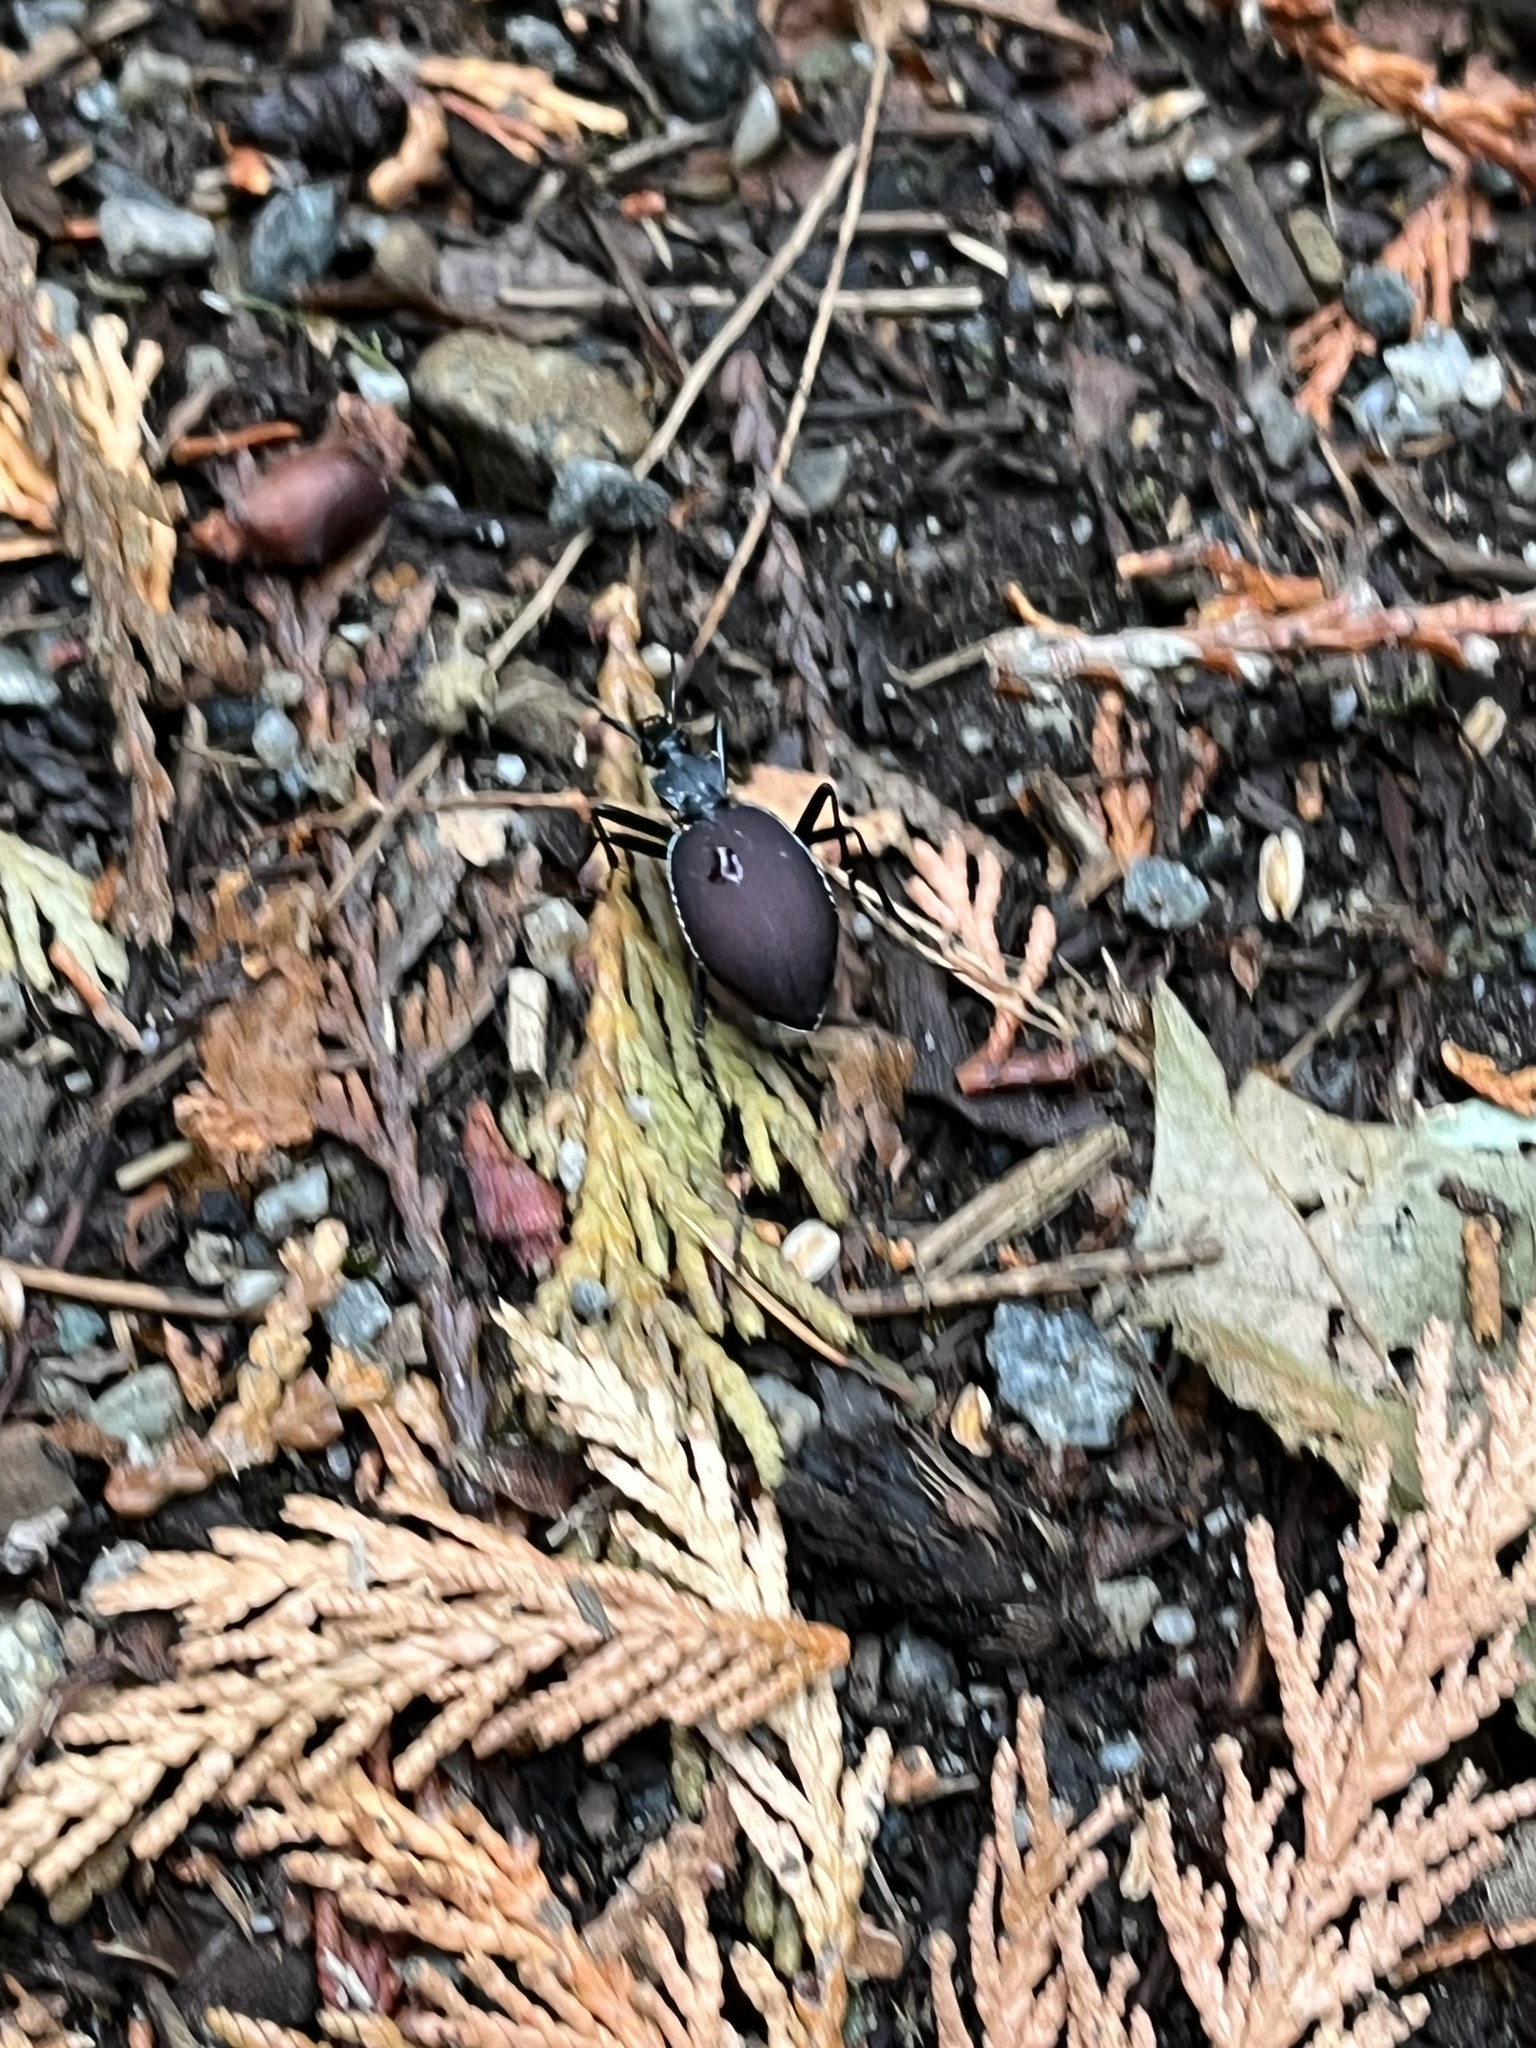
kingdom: Animalia
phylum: Arthropoda
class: Insecta
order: Coleoptera
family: Carabidae
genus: Scaphinotus
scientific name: Scaphinotus angusticollis
